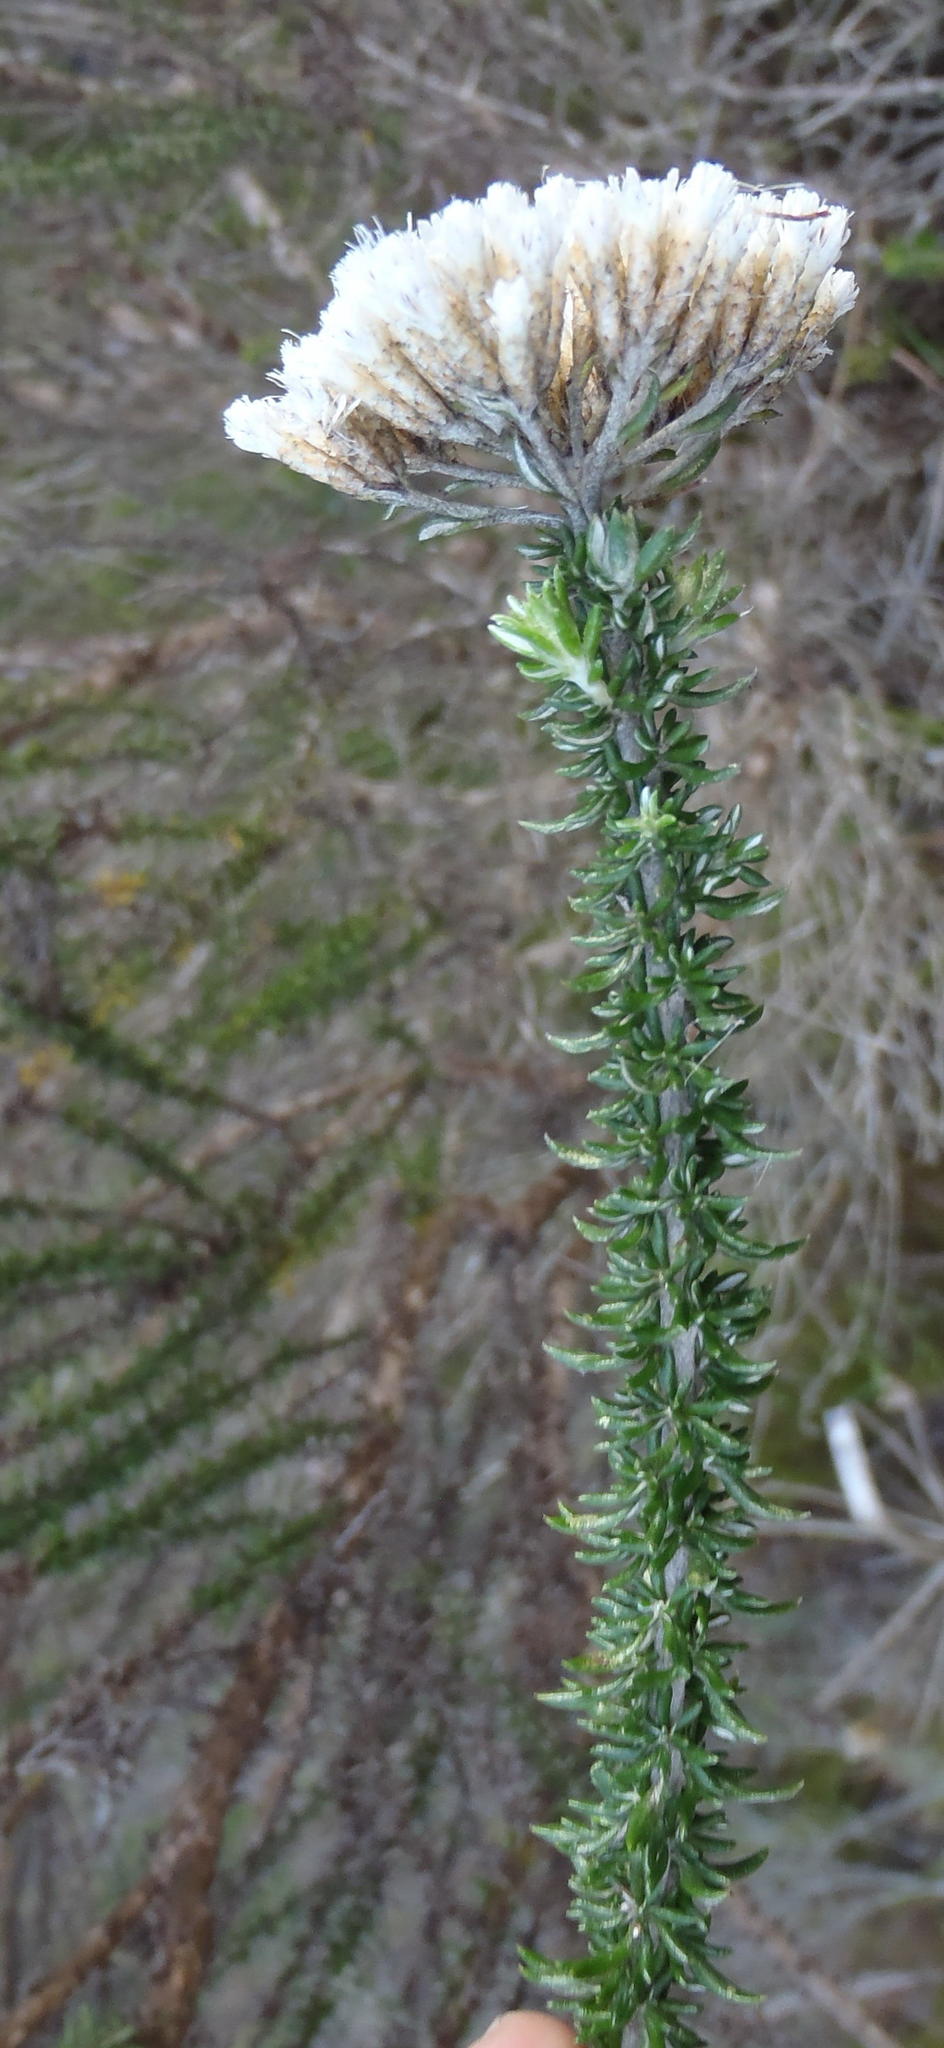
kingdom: Plantae
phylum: Tracheophyta
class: Magnoliopsida
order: Asterales
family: Asteraceae
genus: Metalasia
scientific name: Metalasia muricata
